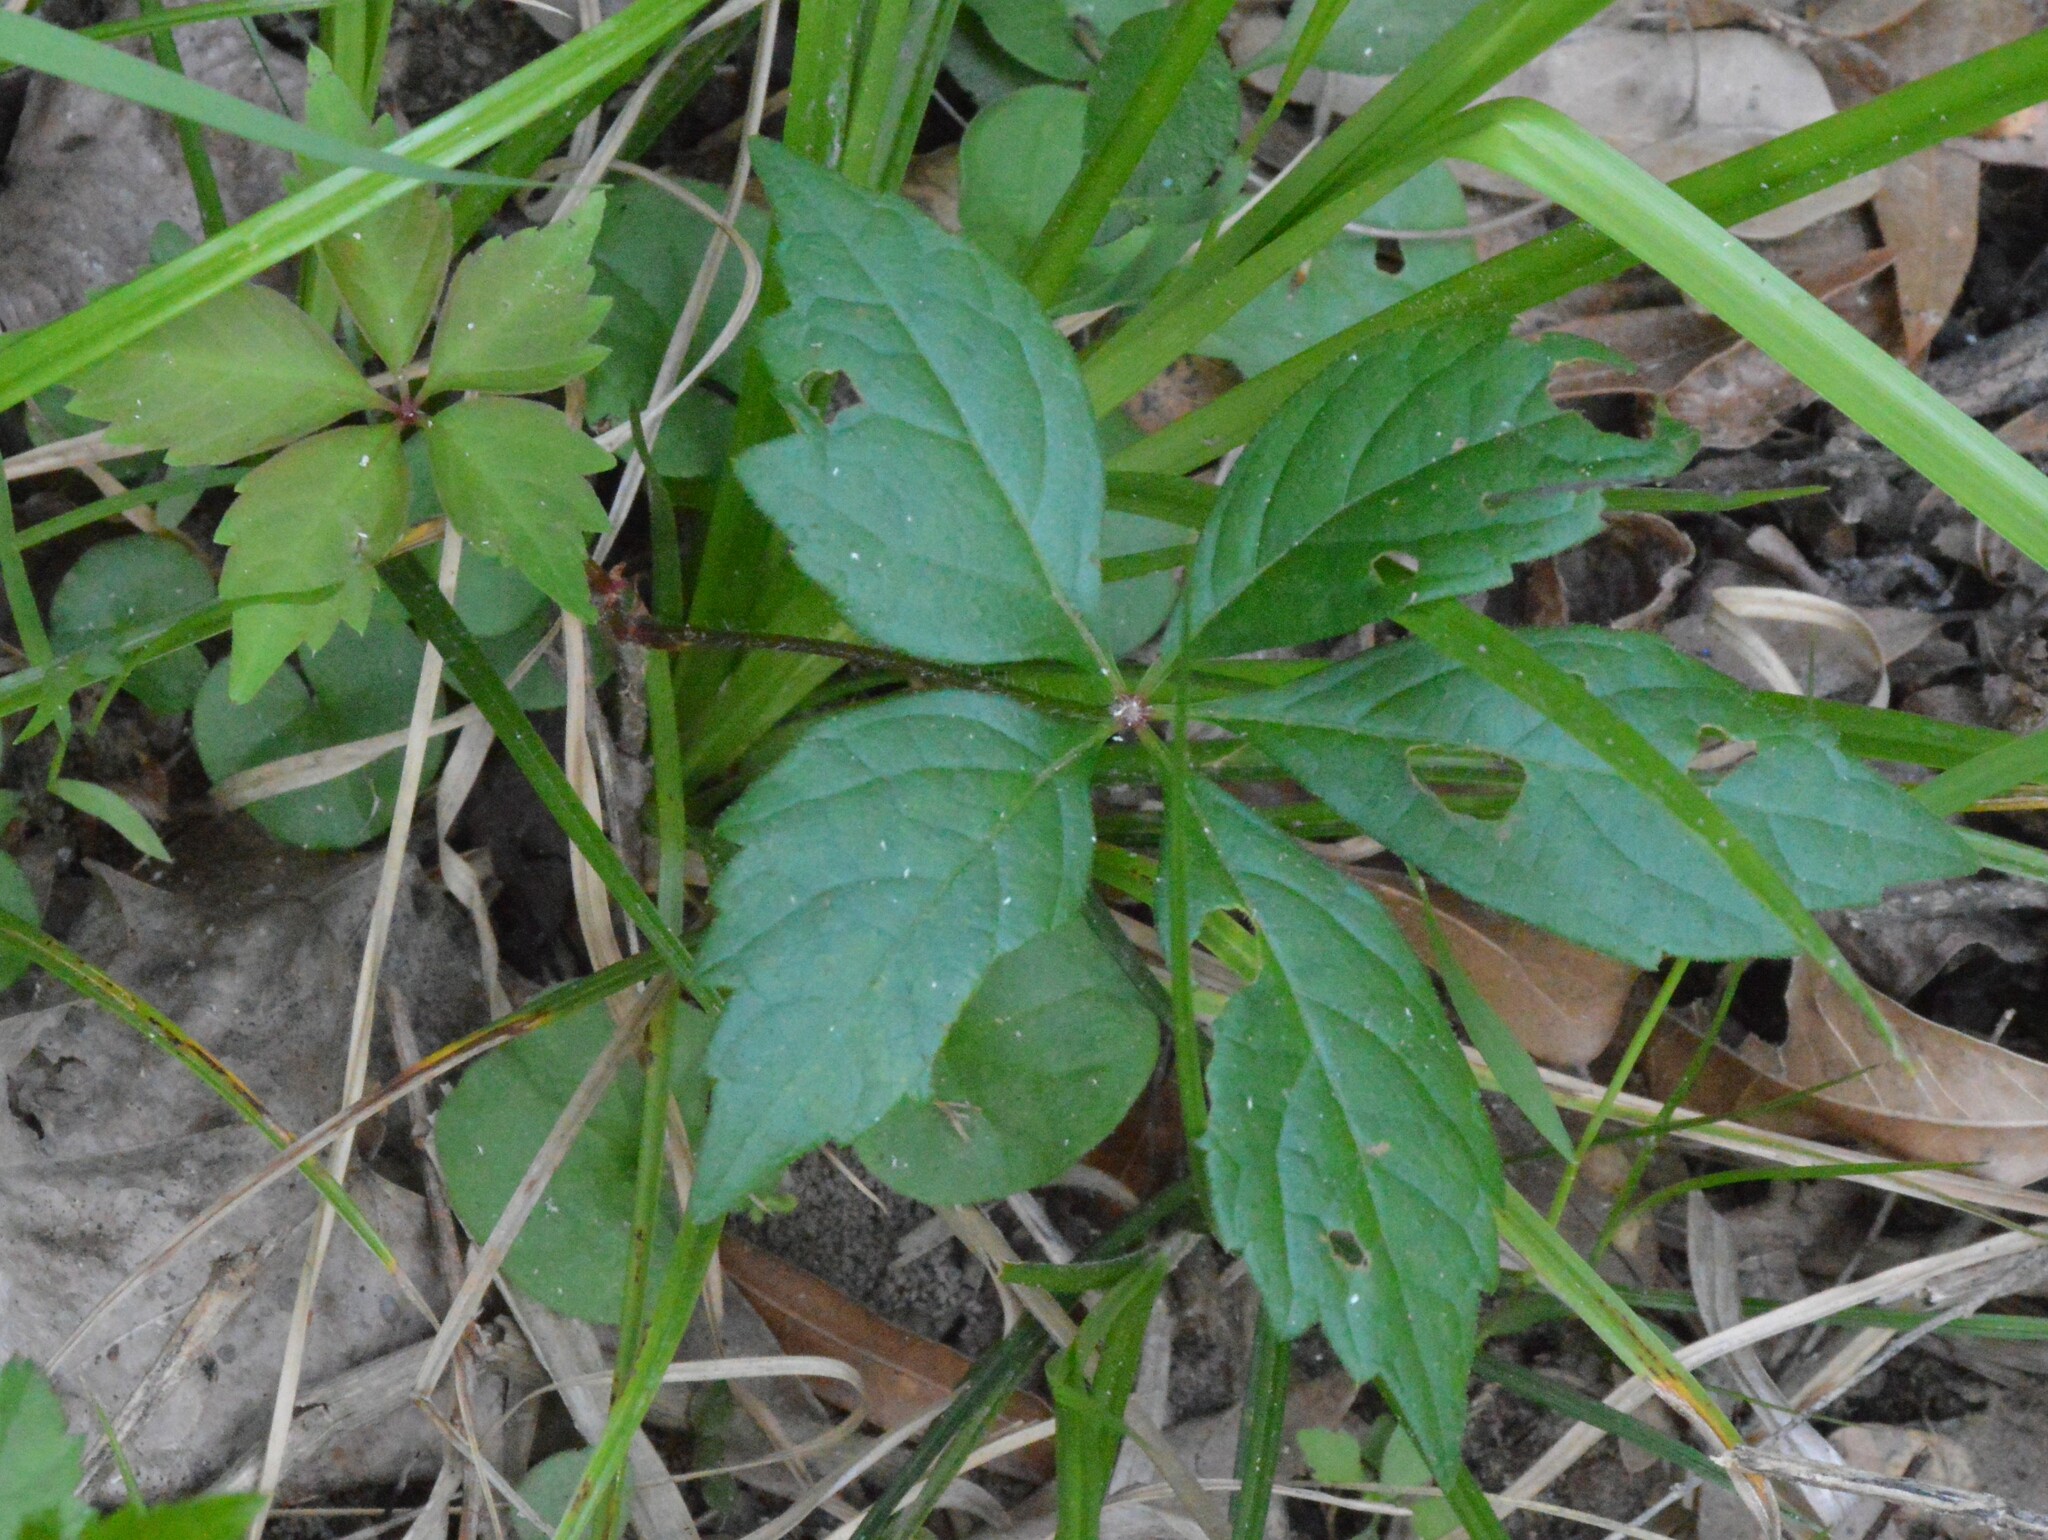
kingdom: Plantae
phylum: Tracheophyta
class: Magnoliopsida
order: Vitales
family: Vitaceae
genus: Parthenocissus
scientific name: Parthenocissus quinquefolia
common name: Virginia-creeper
